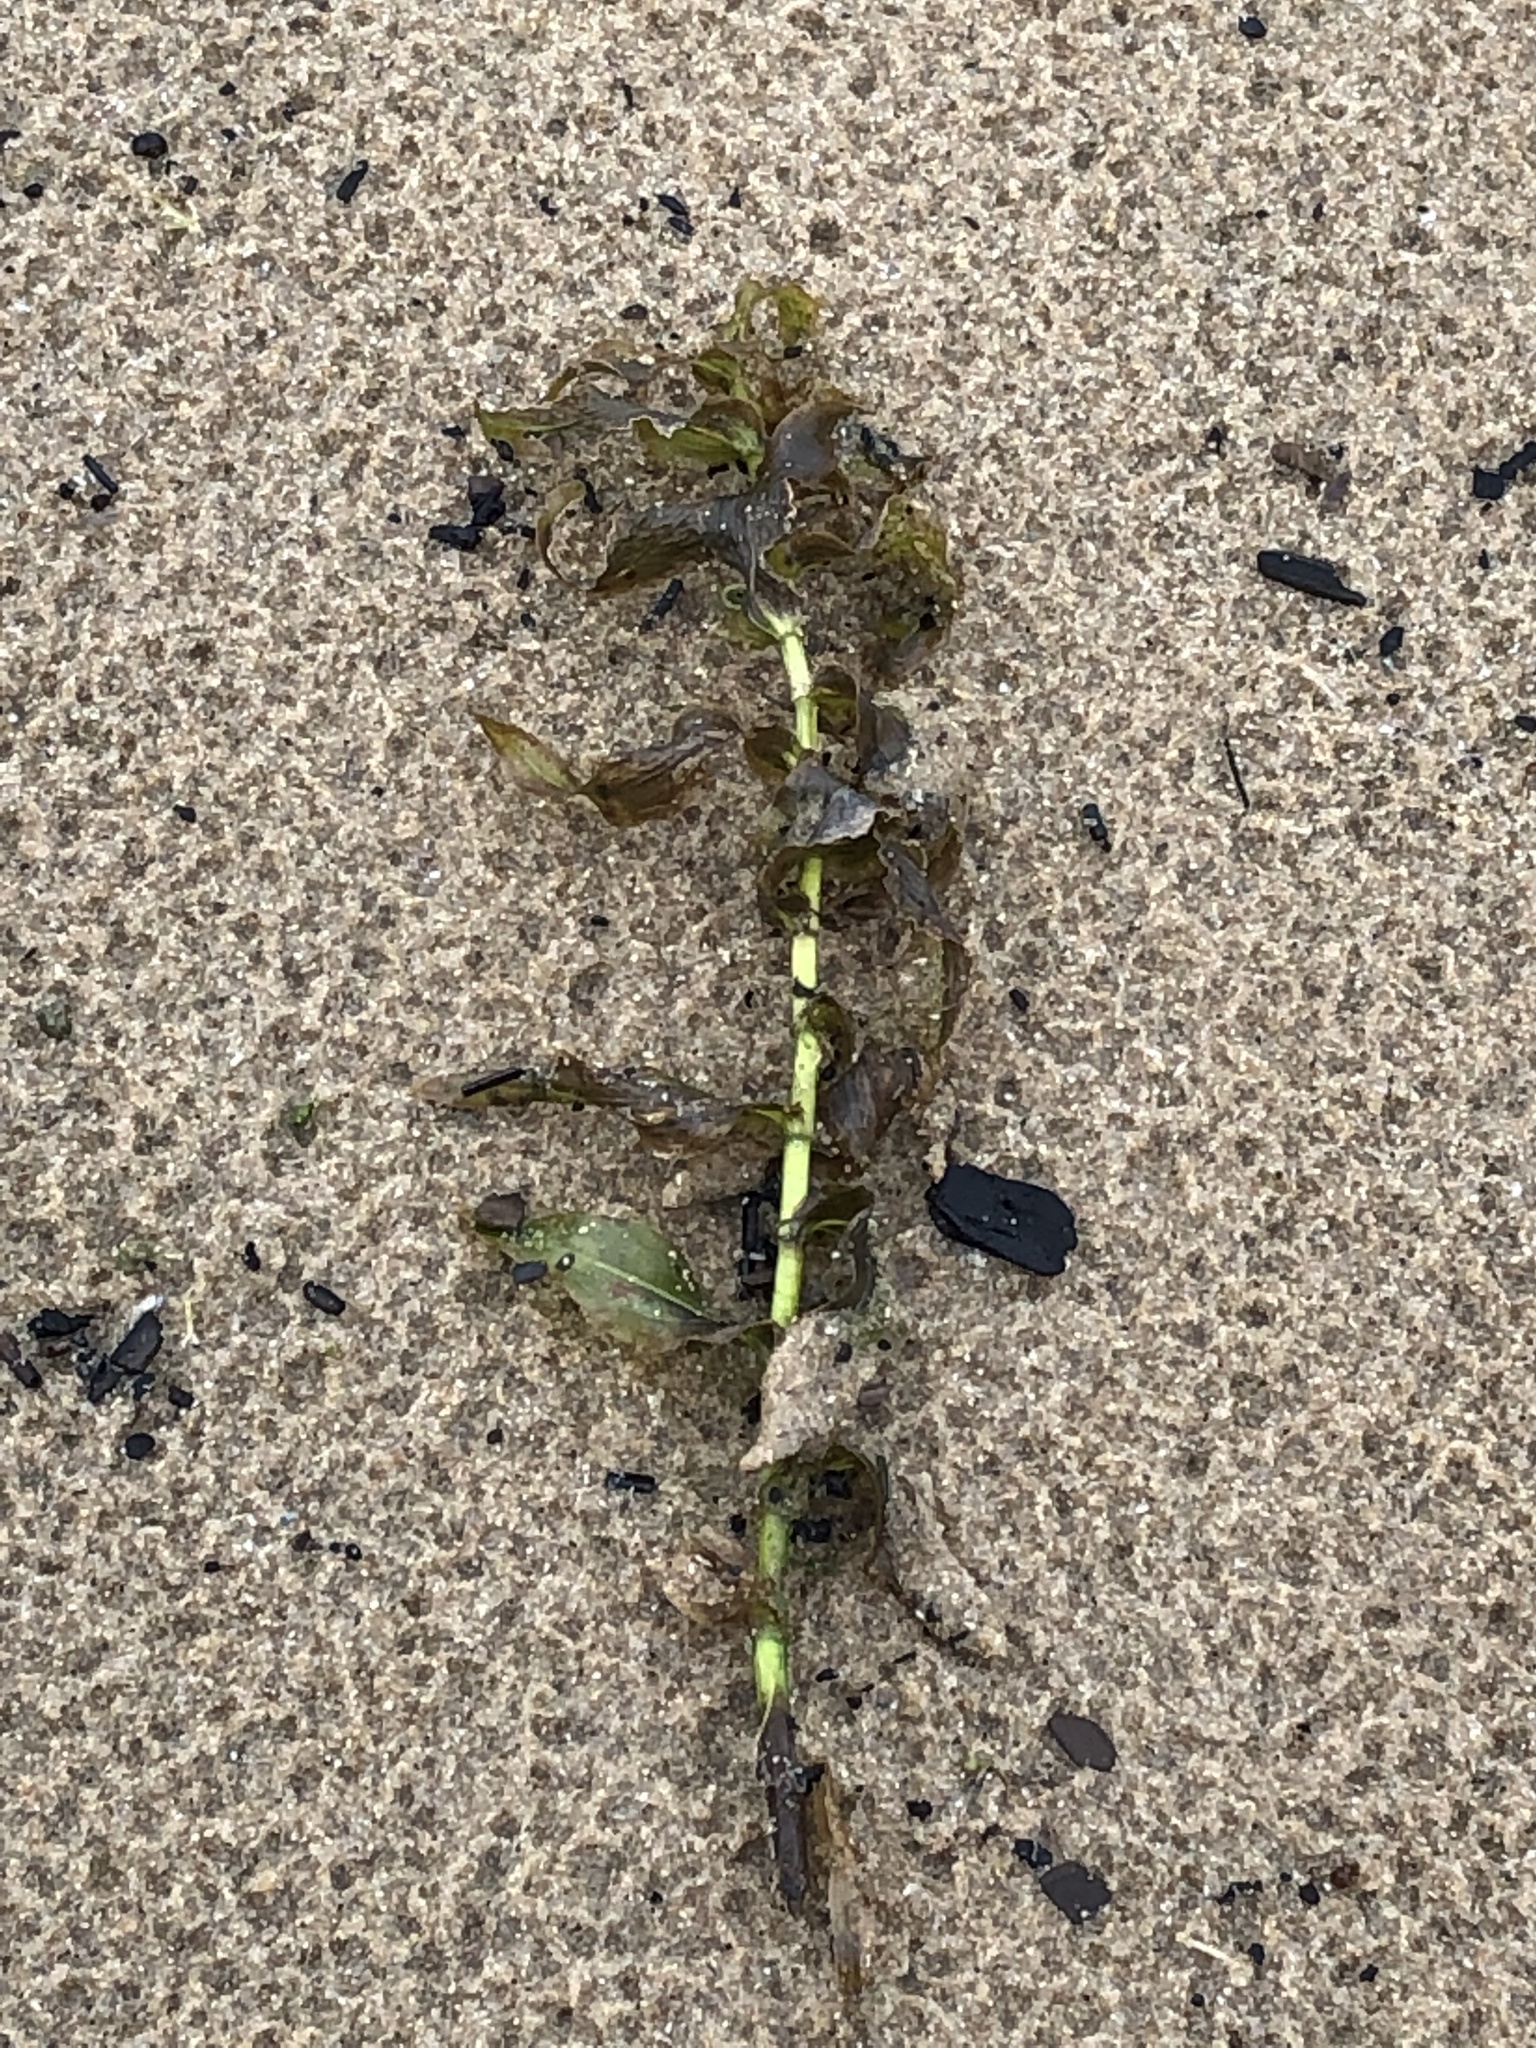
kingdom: Plantae
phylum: Tracheophyta
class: Liliopsida
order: Alismatales
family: Potamogetonaceae
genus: Potamogeton
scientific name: Potamogeton richardsonii
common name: Richardson's pondweed
